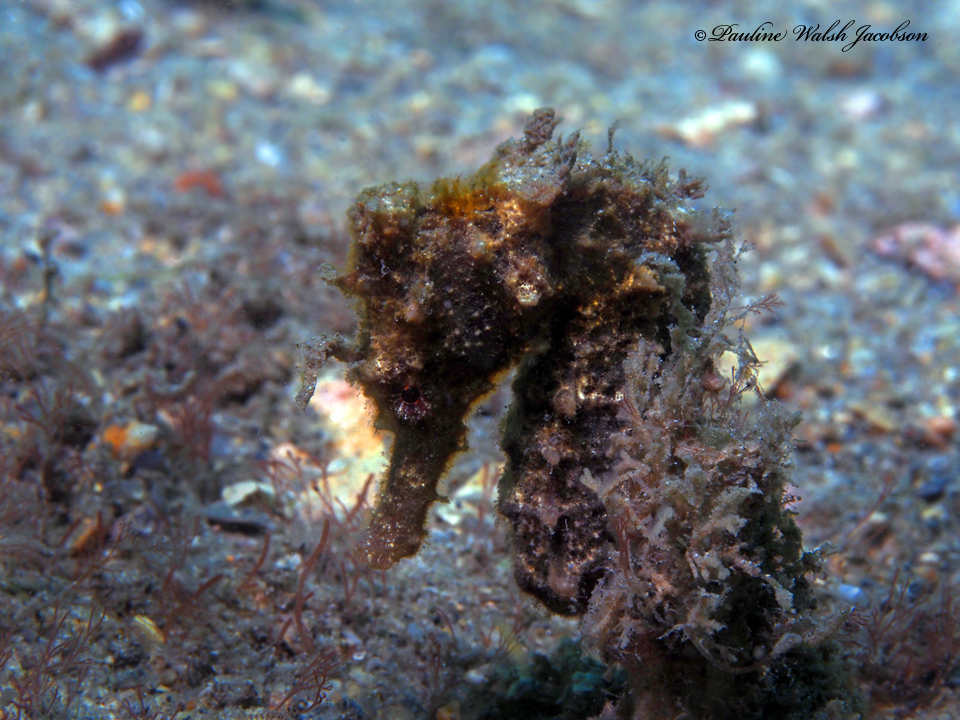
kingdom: Animalia
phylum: Chordata
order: Syngnathiformes
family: Syngnathidae
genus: Hippocampus
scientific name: Hippocampus erectus
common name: Lined seahorse
